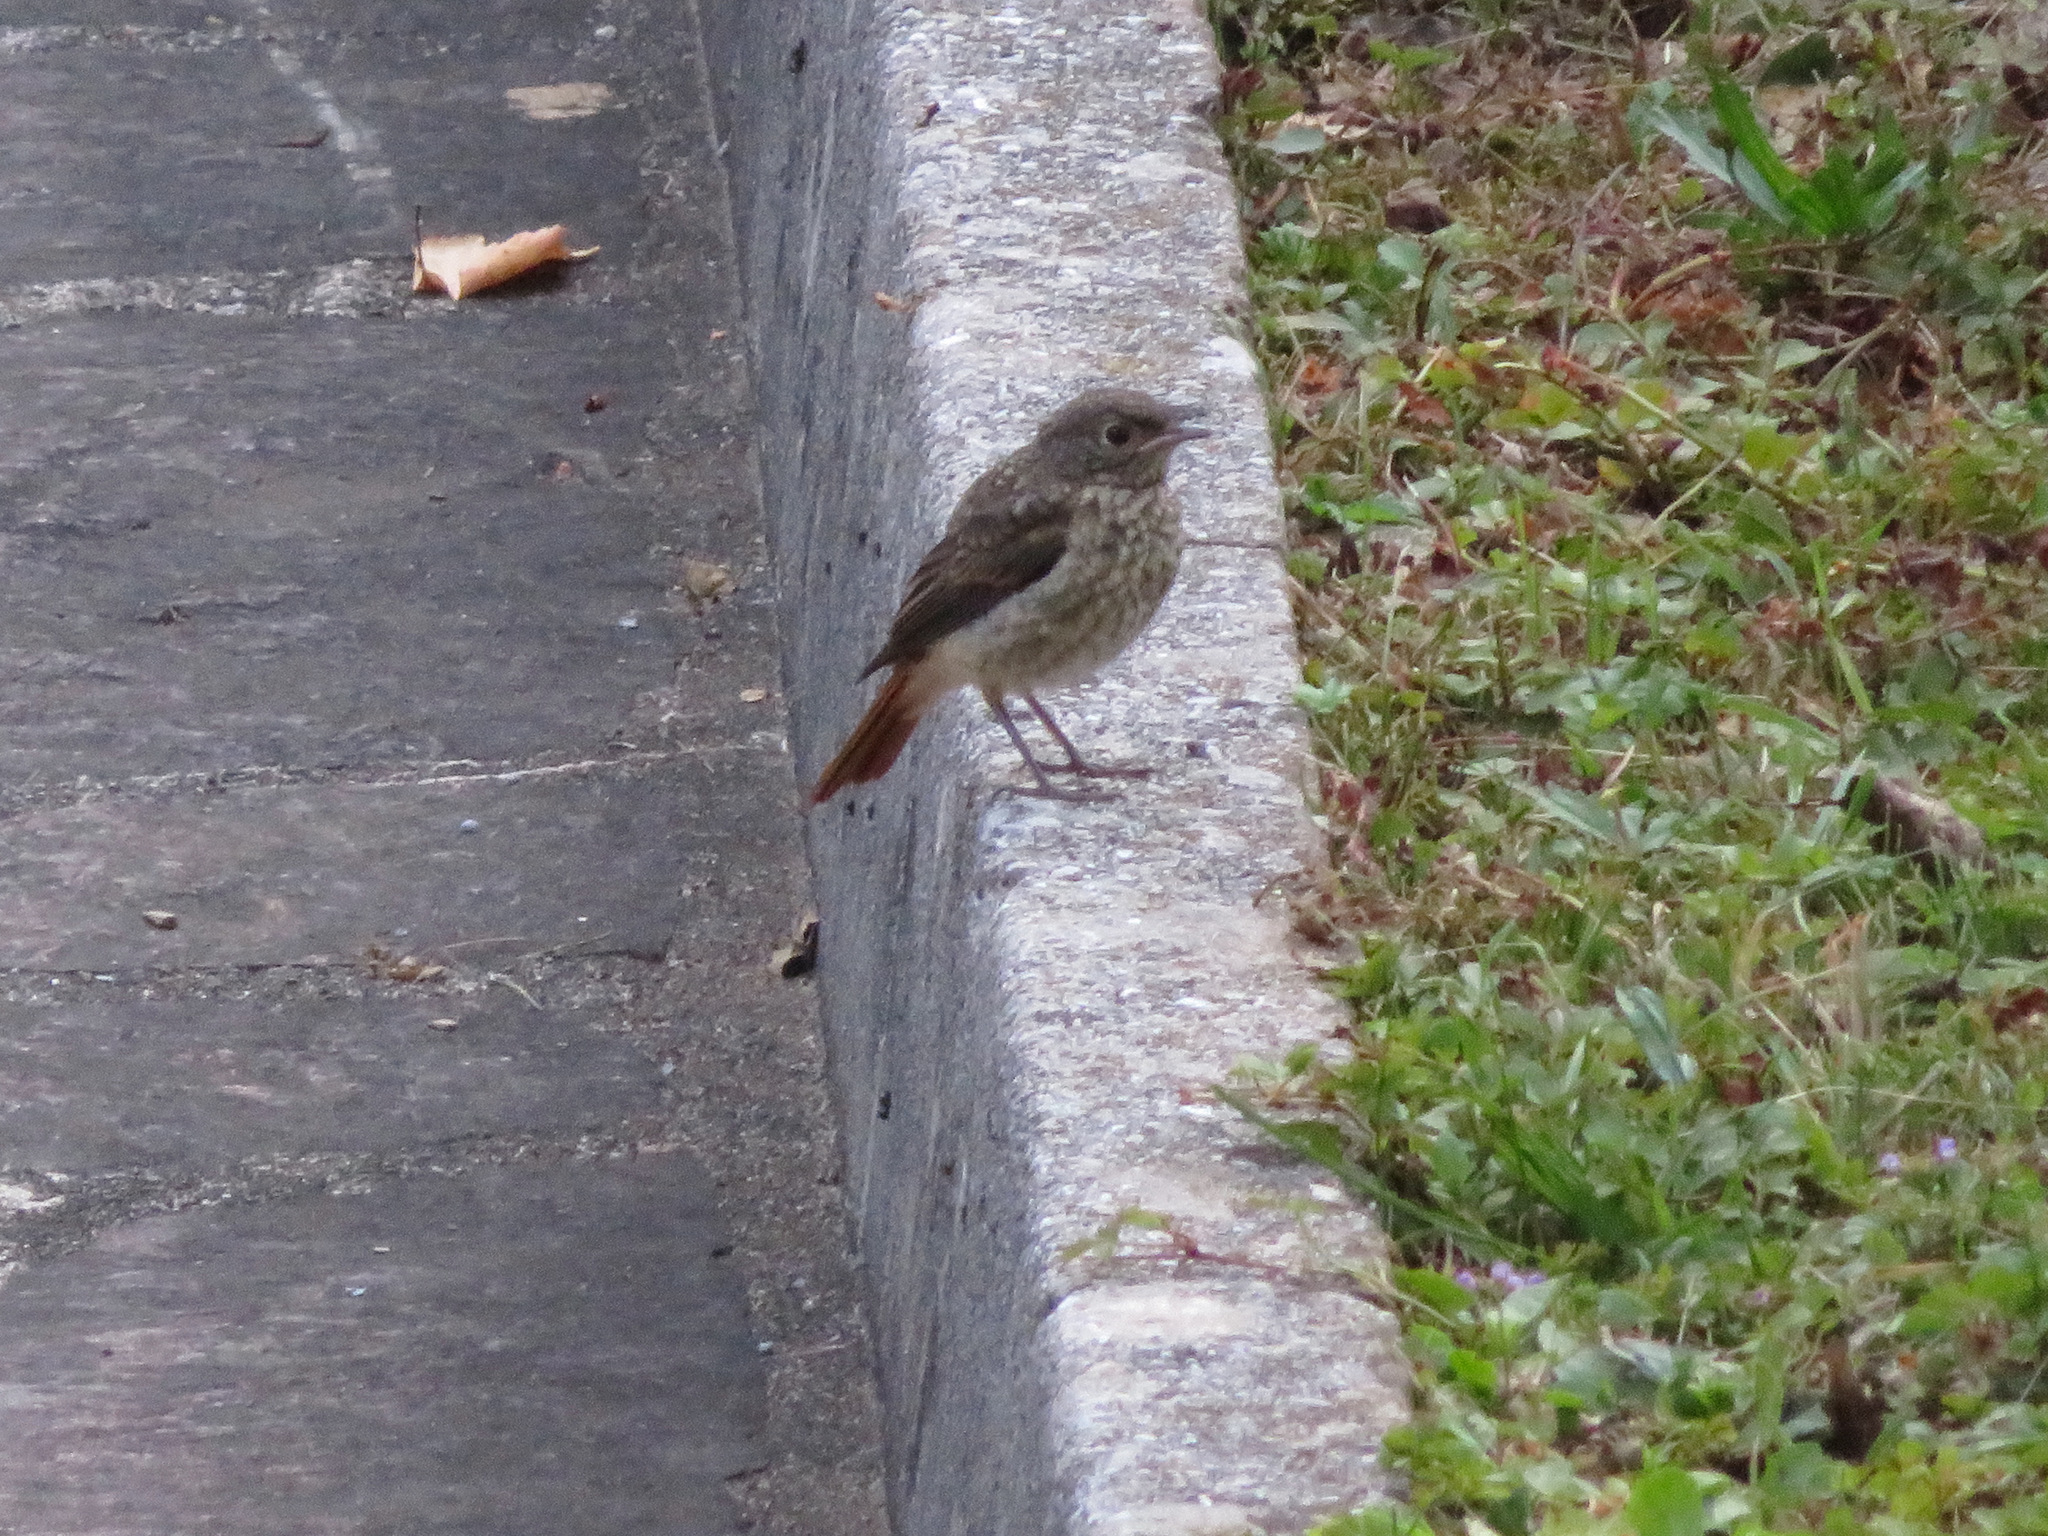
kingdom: Animalia
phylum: Chordata
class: Aves
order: Passeriformes
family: Muscicapidae
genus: Phoenicurus
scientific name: Phoenicurus phoenicurus
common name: Common redstart
